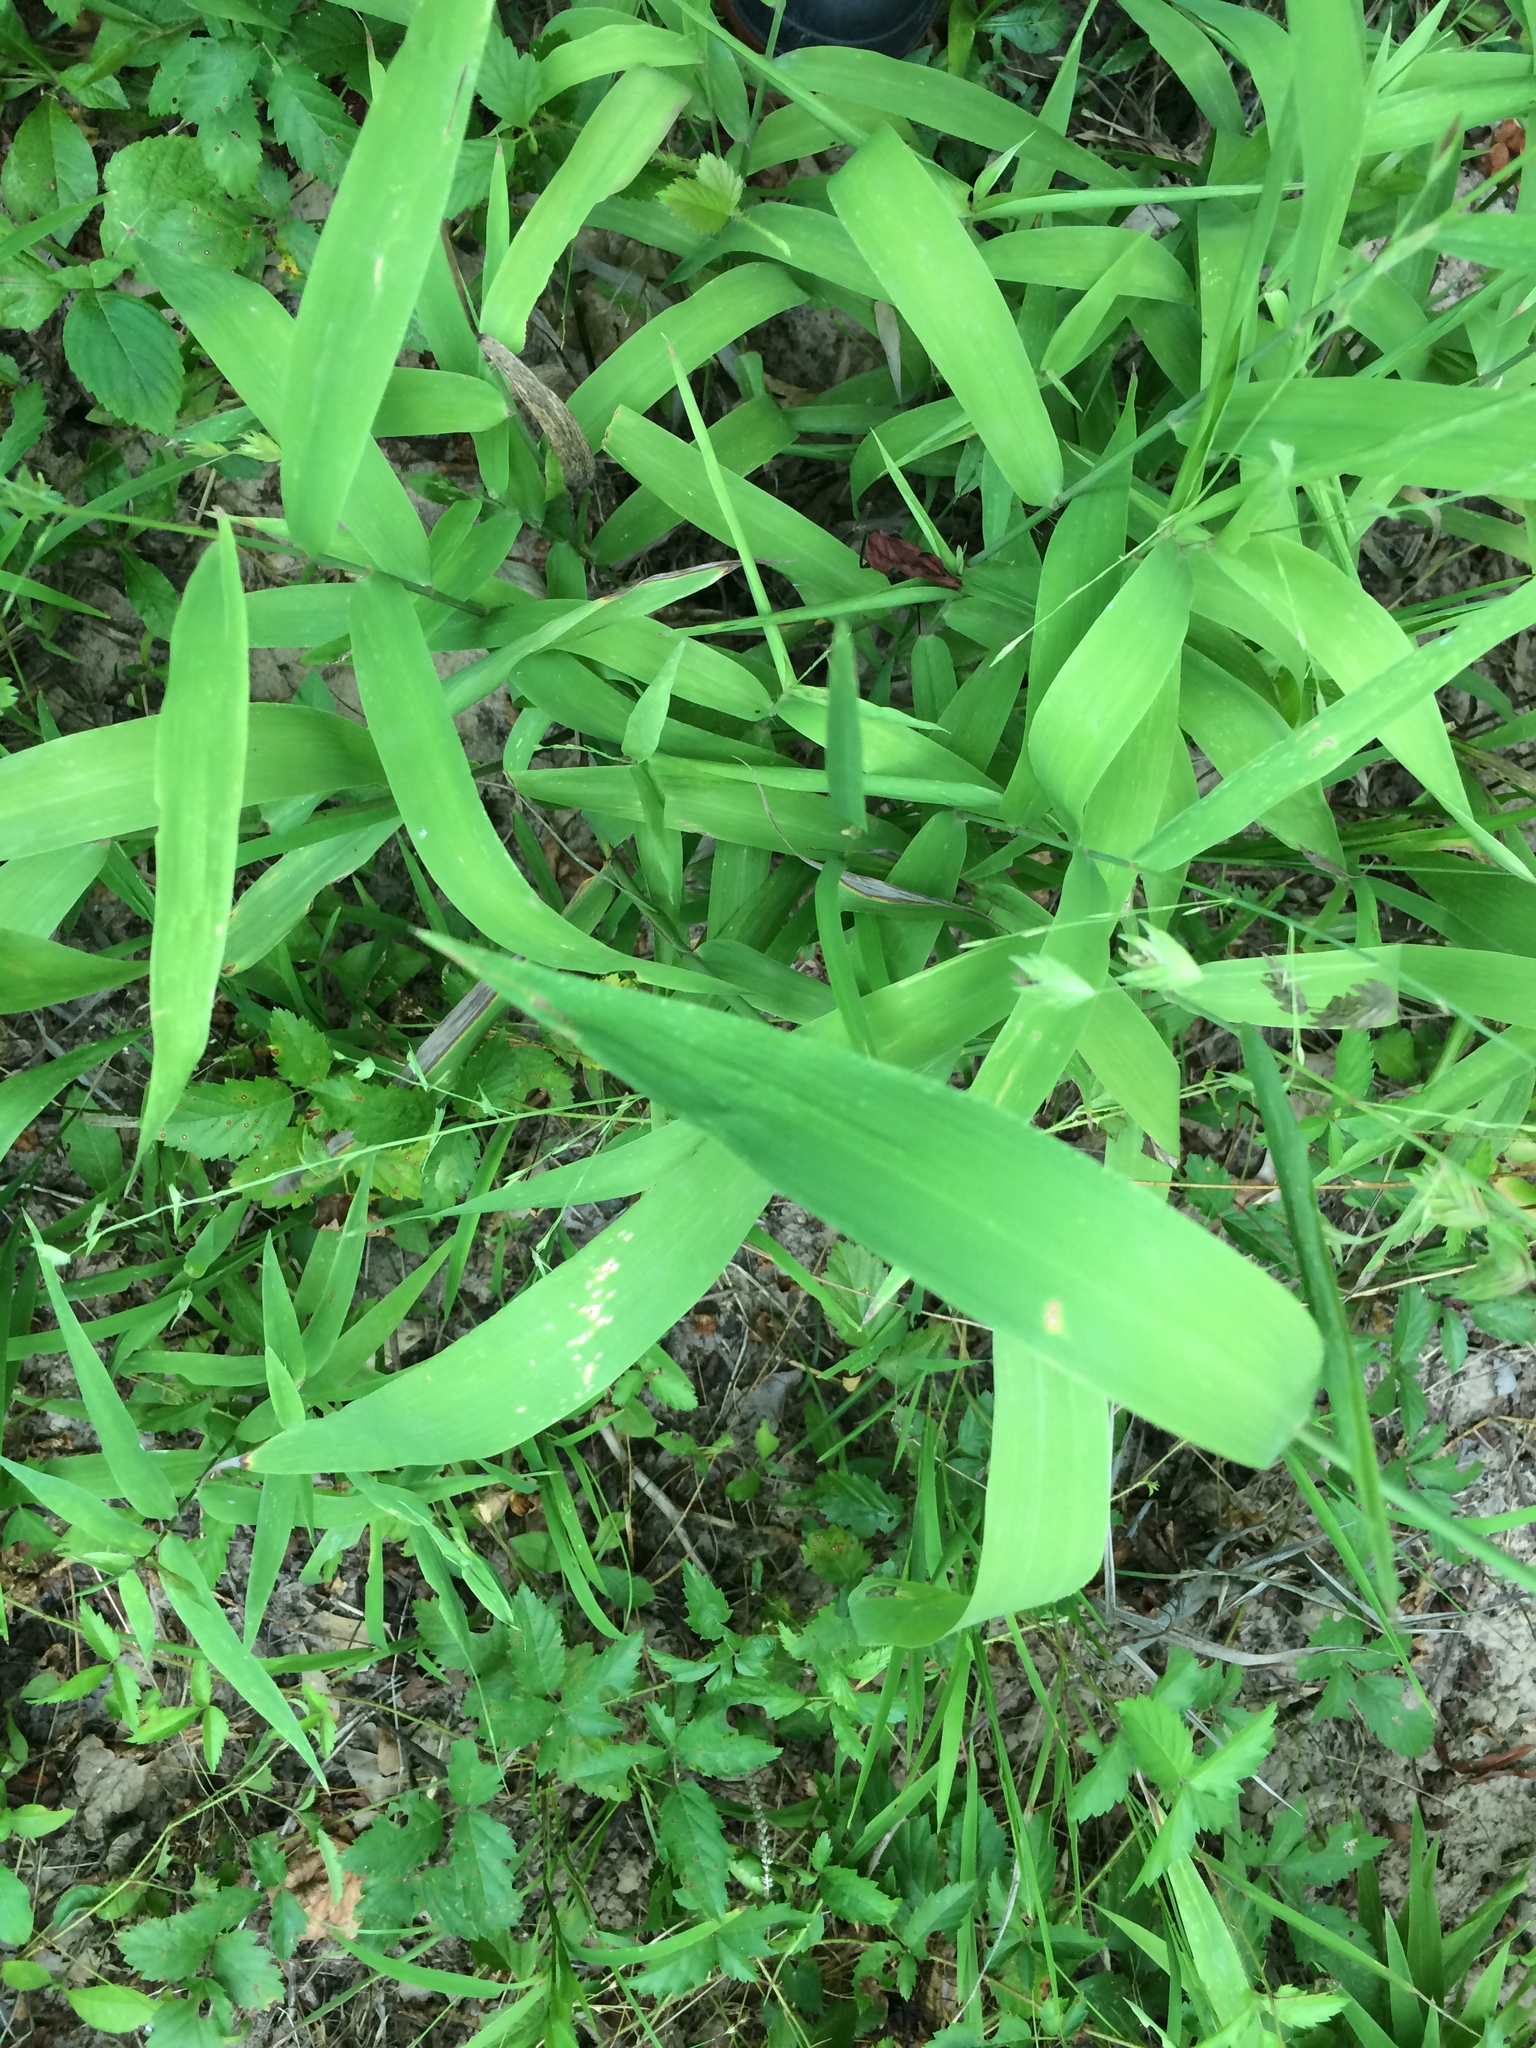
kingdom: Plantae
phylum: Tracheophyta
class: Liliopsida
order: Poales
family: Poaceae
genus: Chasmanthium
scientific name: Chasmanthium latifolium
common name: Broad-leaved chasmanthium
